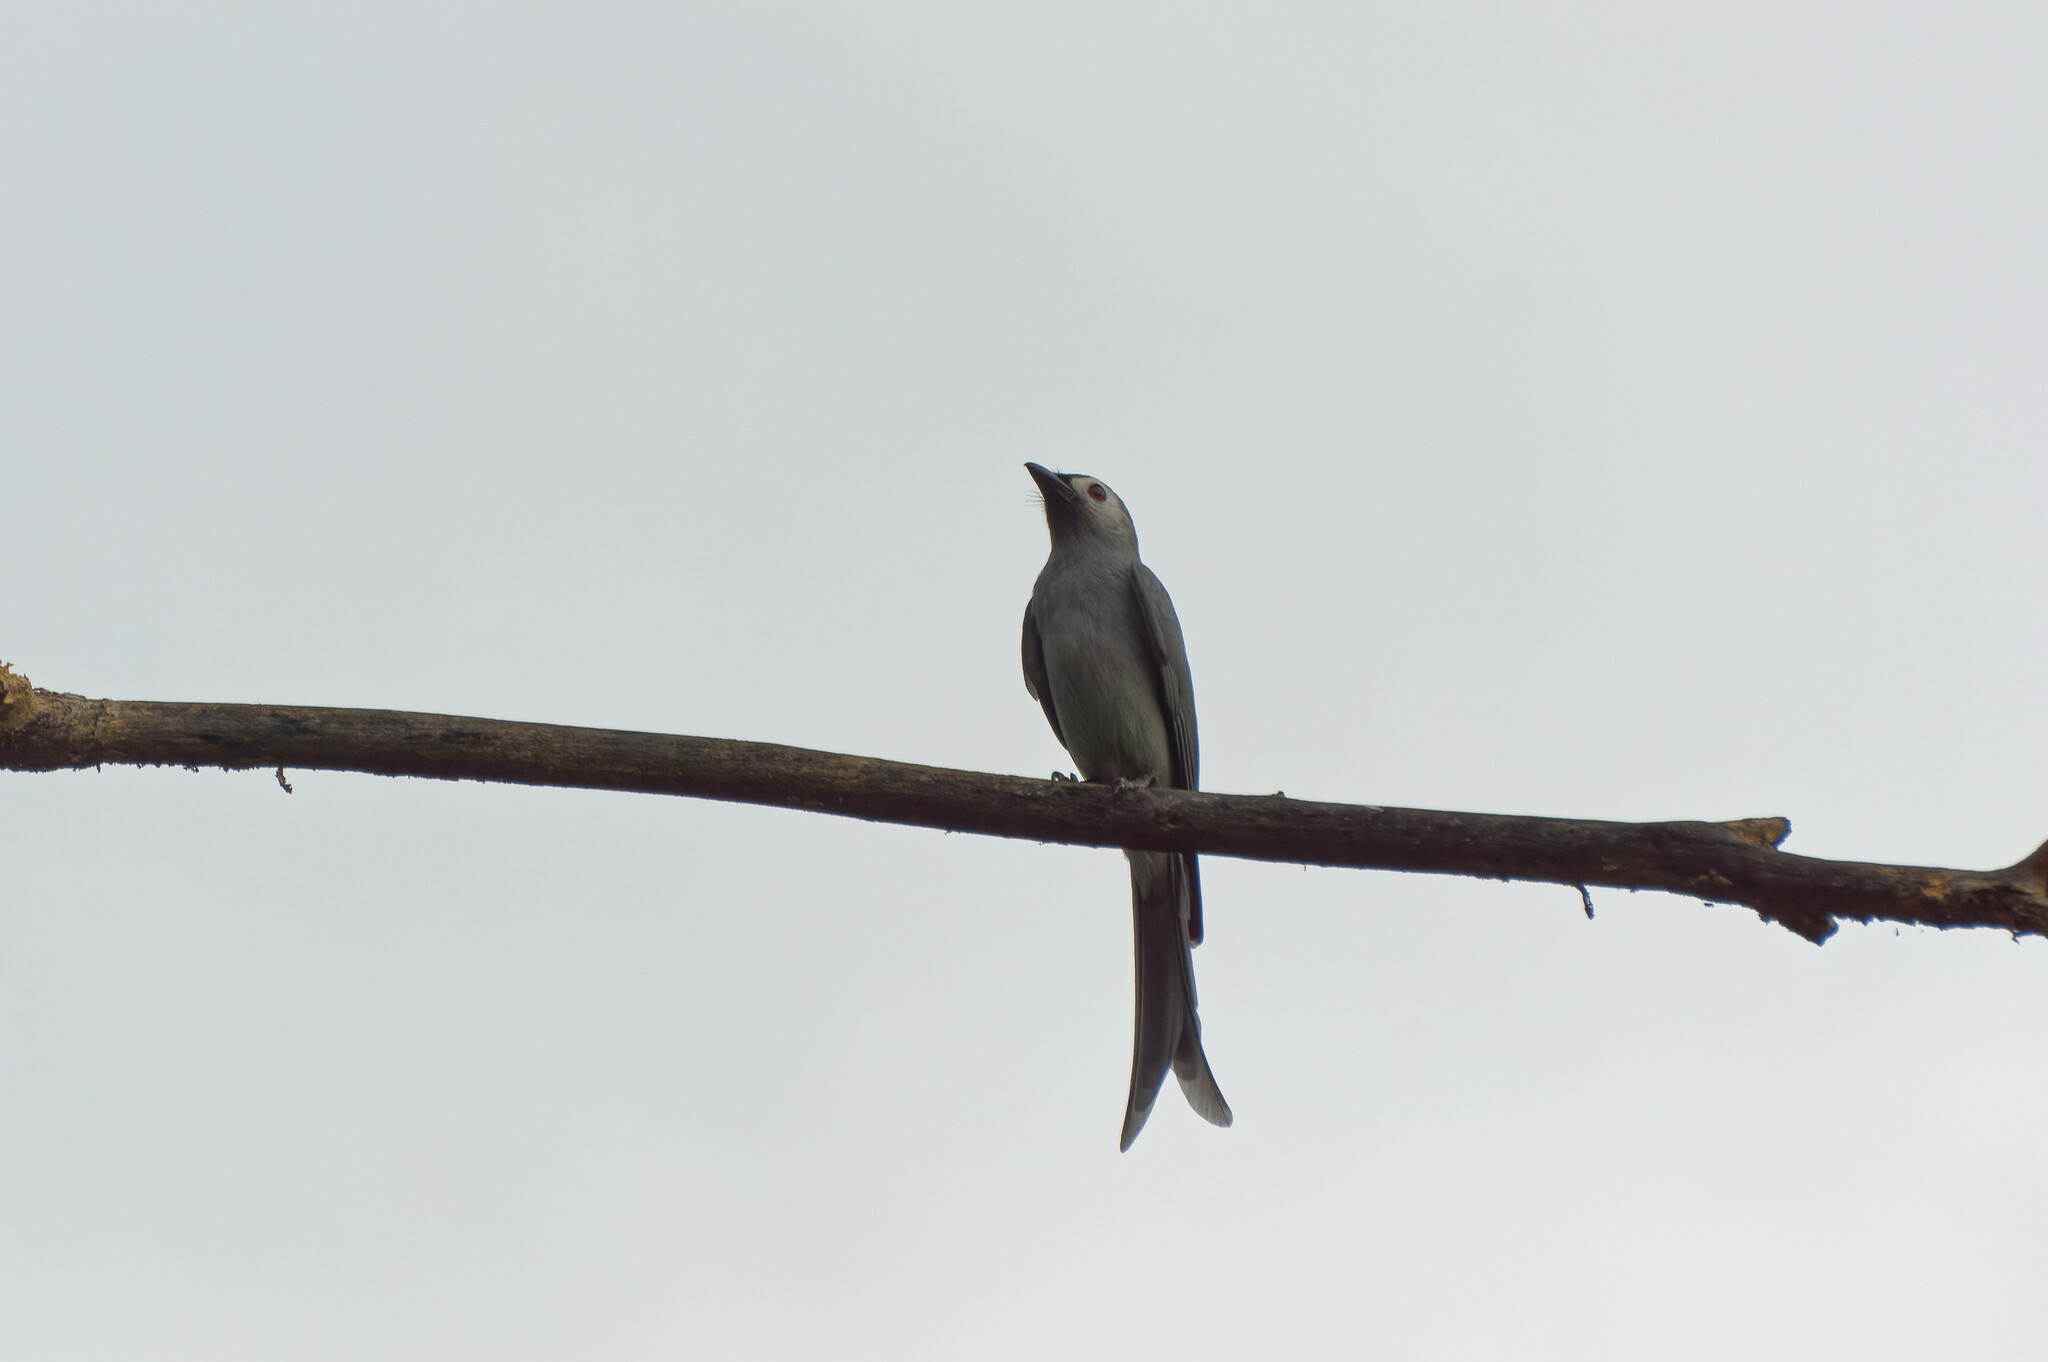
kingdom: Animalia
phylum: Chordata
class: Aves
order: Passeriformes
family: Dicruridae
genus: Dicrurus
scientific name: Dicrurus leucophaeus
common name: Ashy drongo
